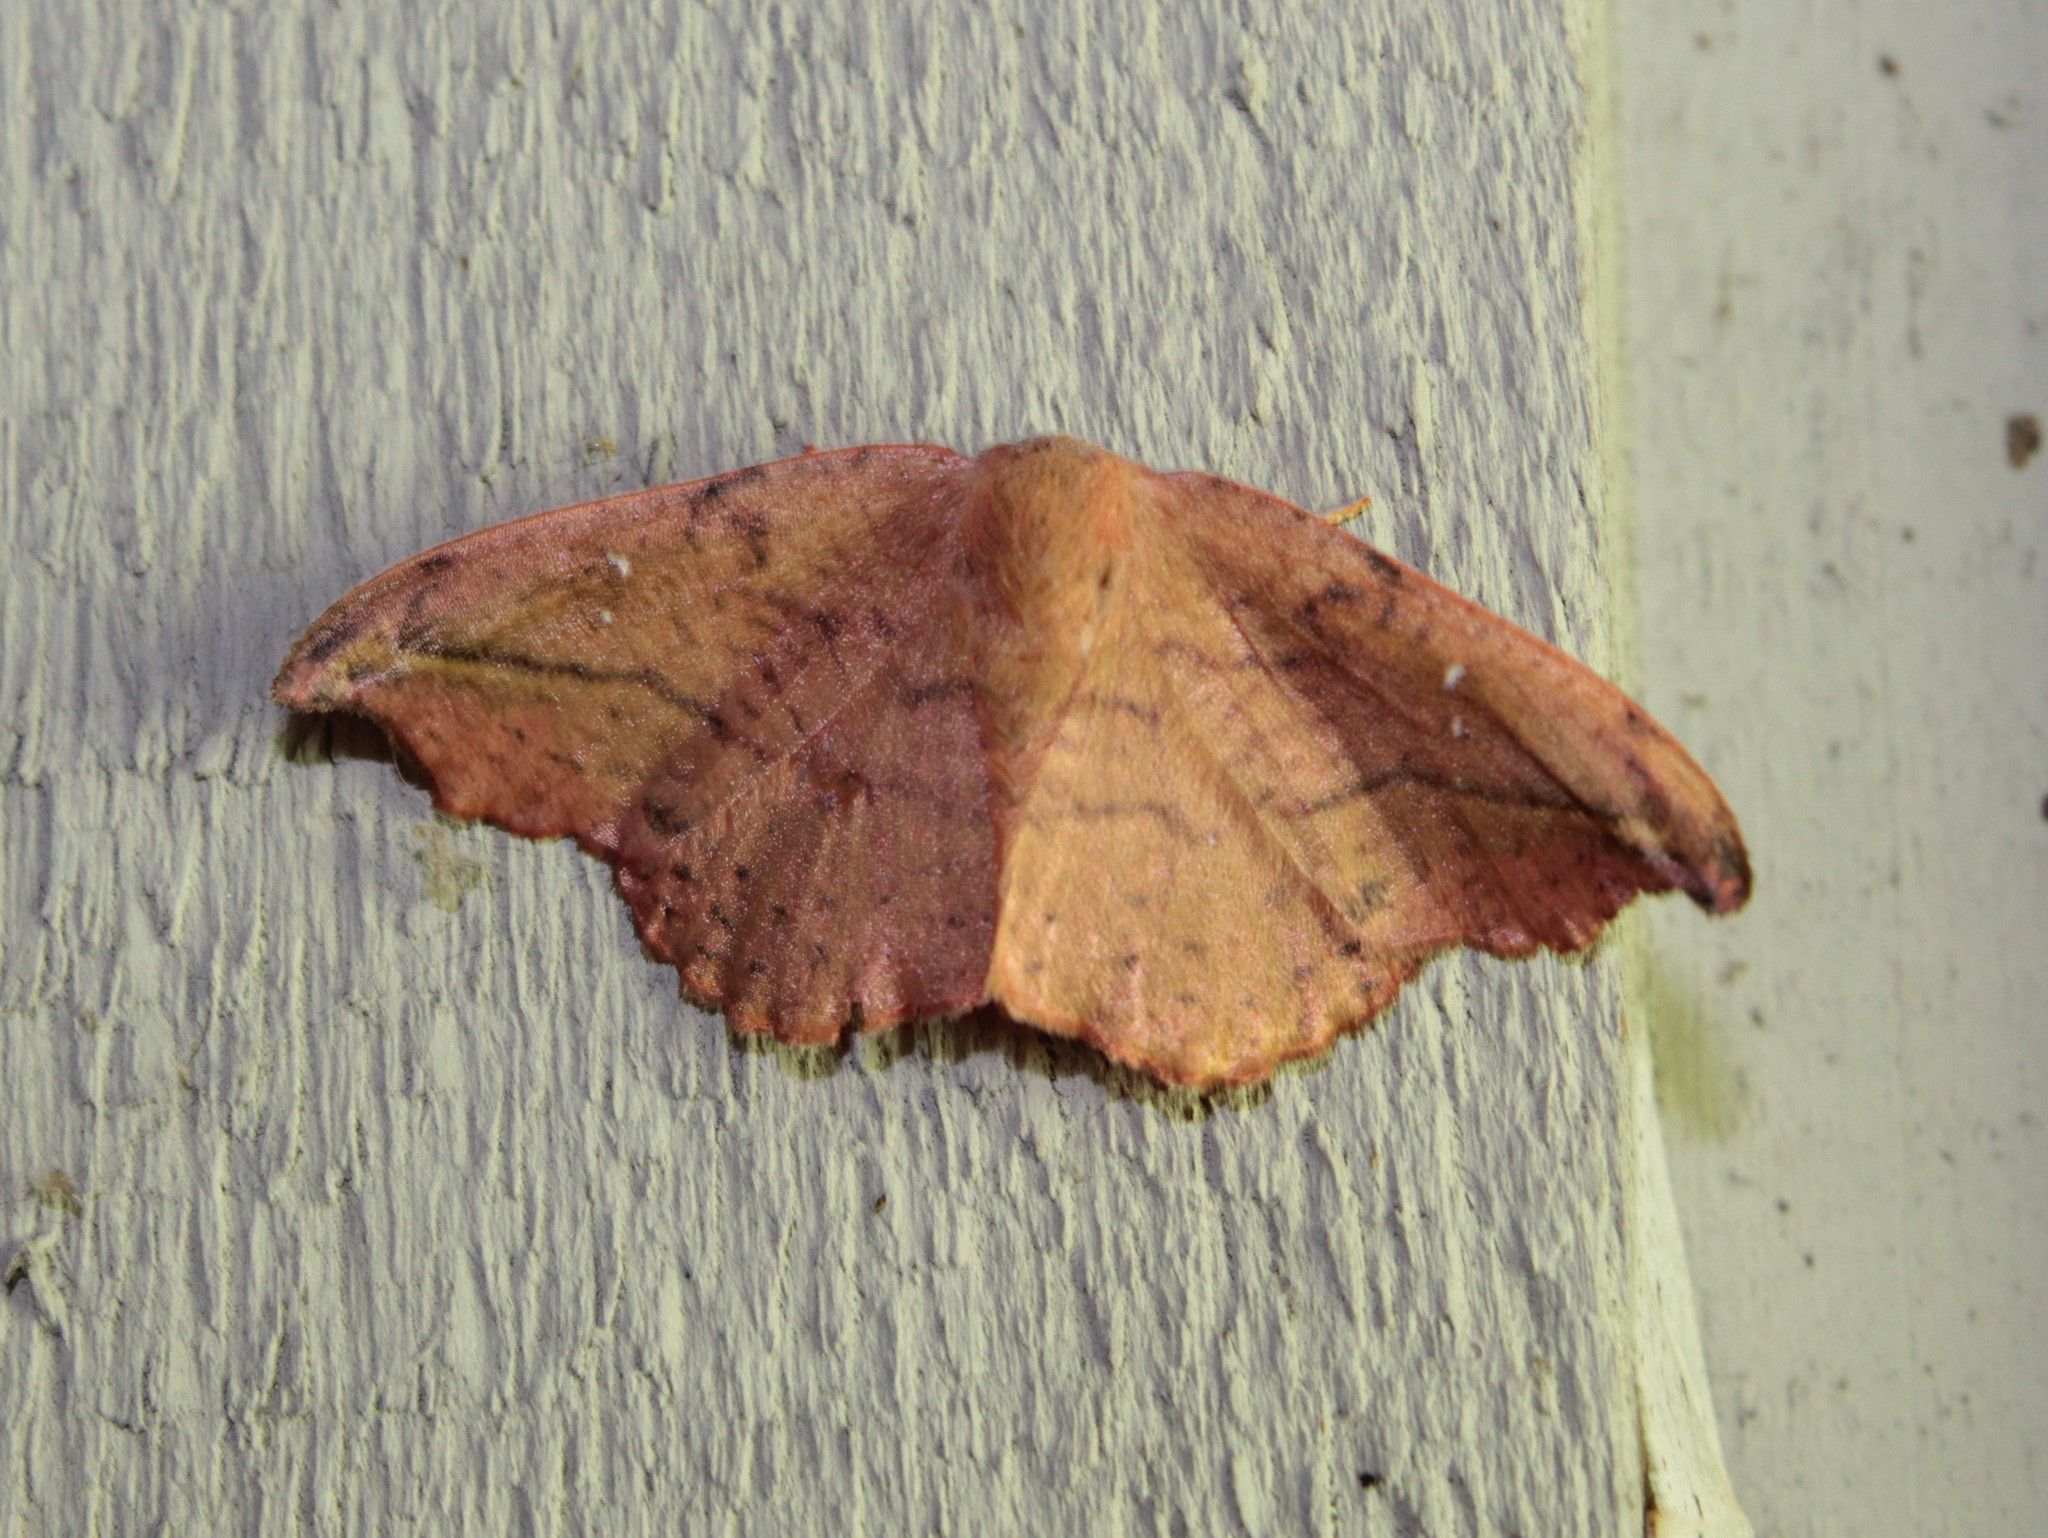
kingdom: Animalia
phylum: Arthropoda
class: Insecta
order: Lepidoptera
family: Drepanidae
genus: Oreta
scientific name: Oreta rosea
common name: Rose hooktip
